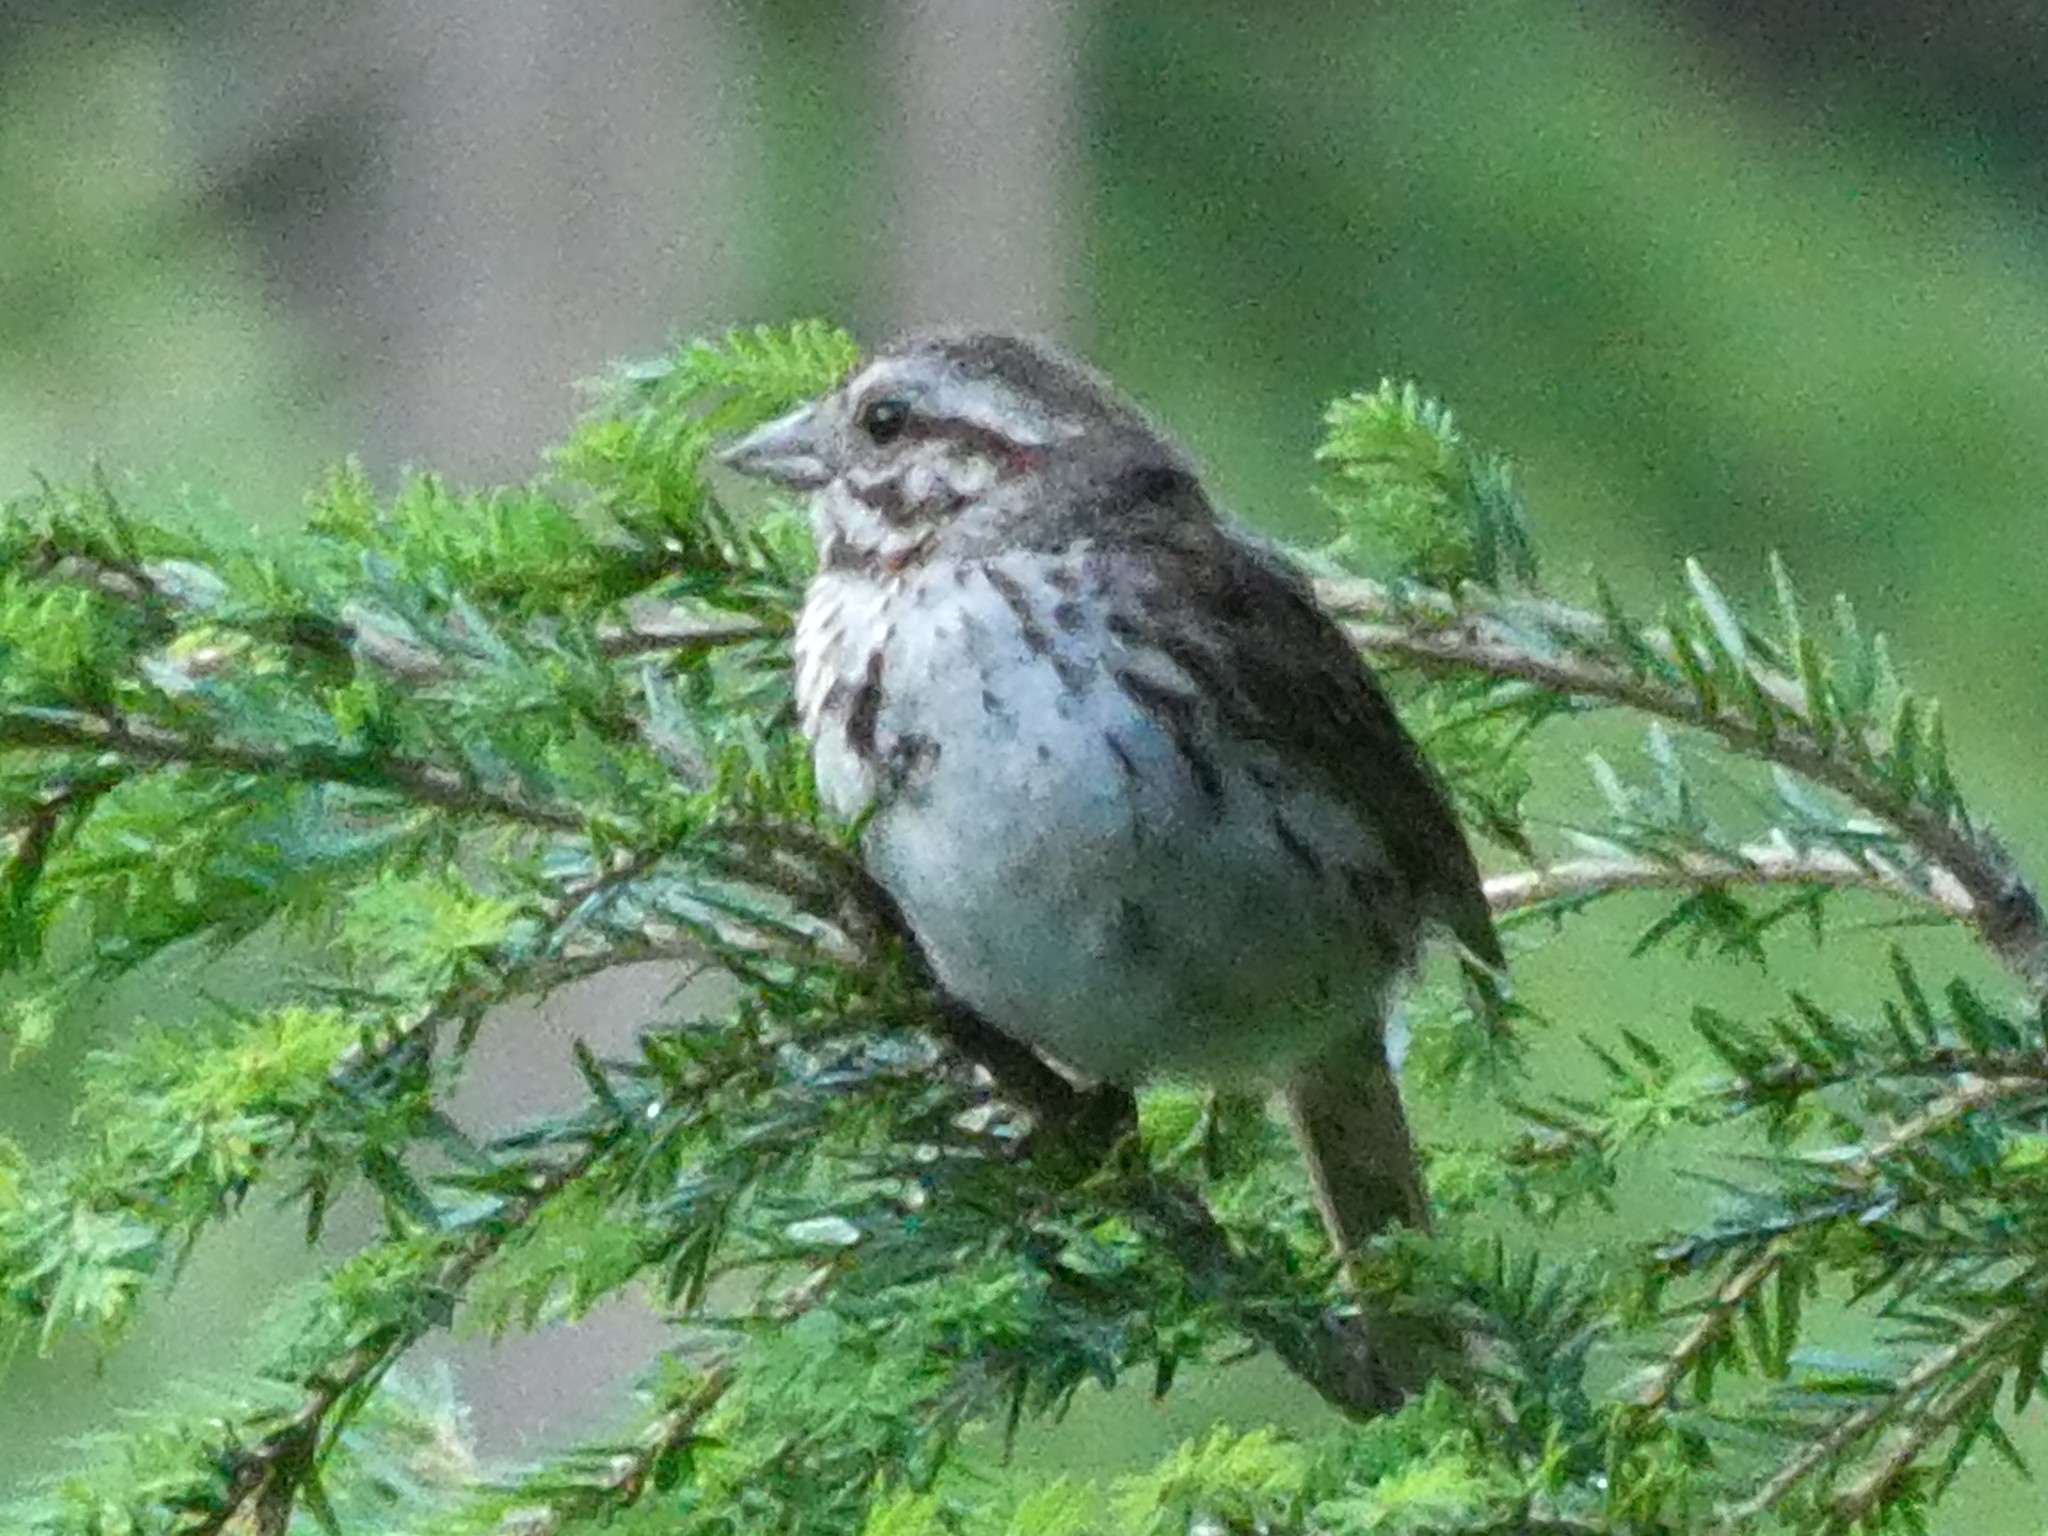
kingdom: Animalia
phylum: Chordata
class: Aves
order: Passeriformes
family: Passerellidae
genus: Melospiza
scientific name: Melospiza melodia
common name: Song sparrow
